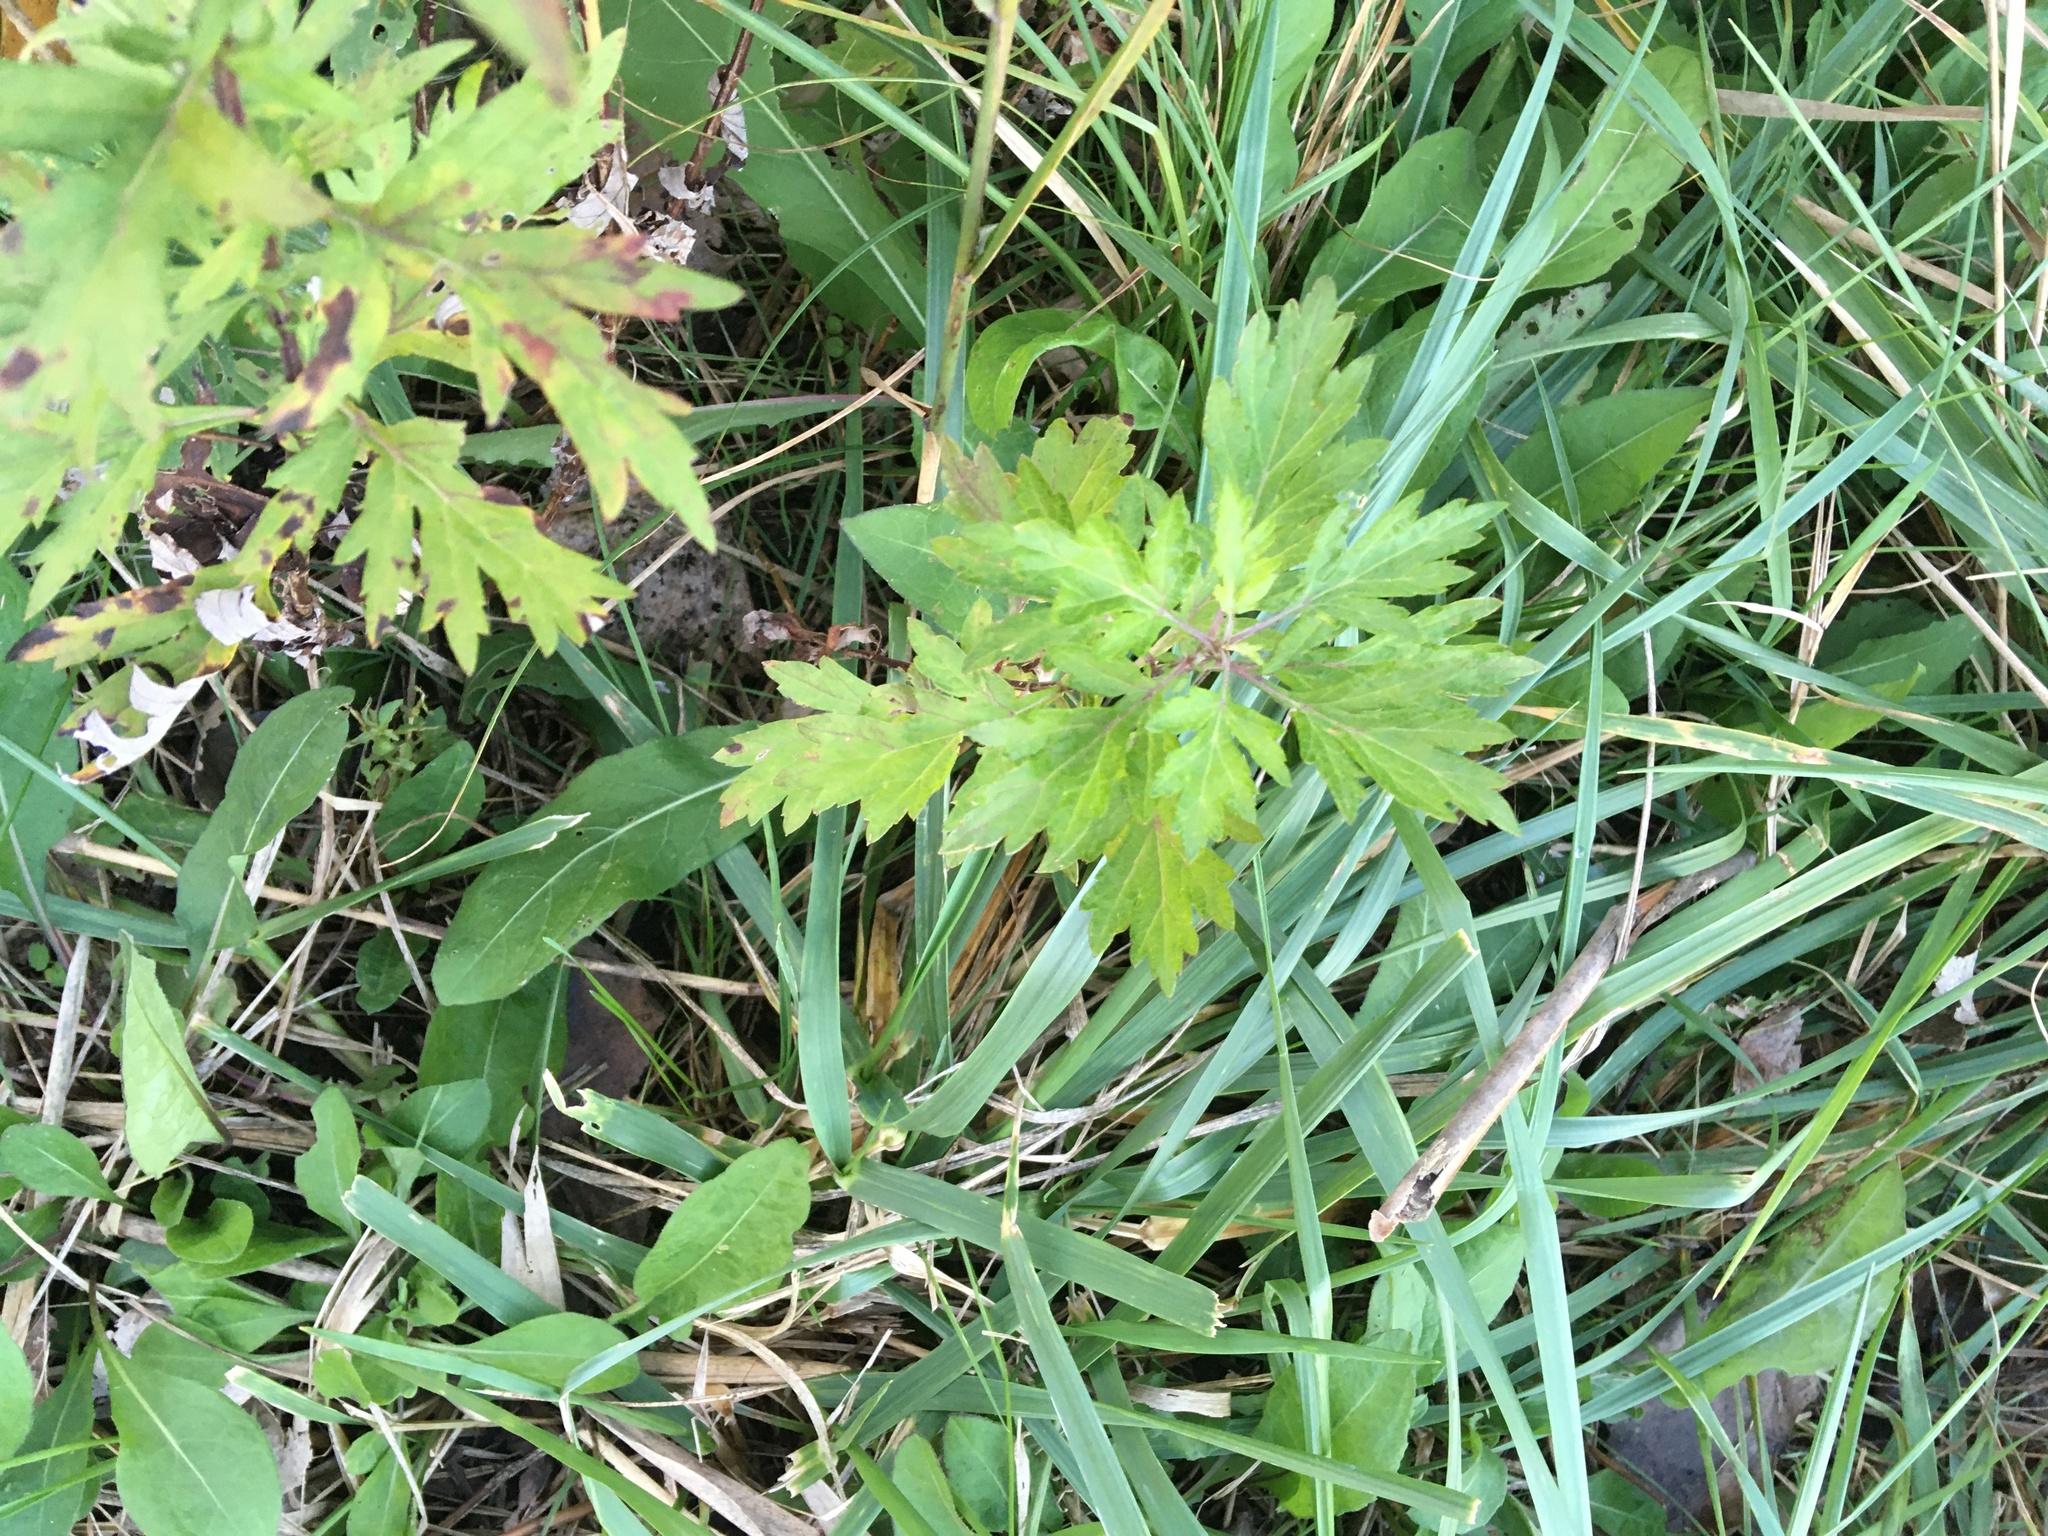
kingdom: Plantae
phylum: Tracheophyta
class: Magnoliopsida
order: Asterales
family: Asteraceae
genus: Artemisia
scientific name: Artemisia vulgaris
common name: Mugwort
